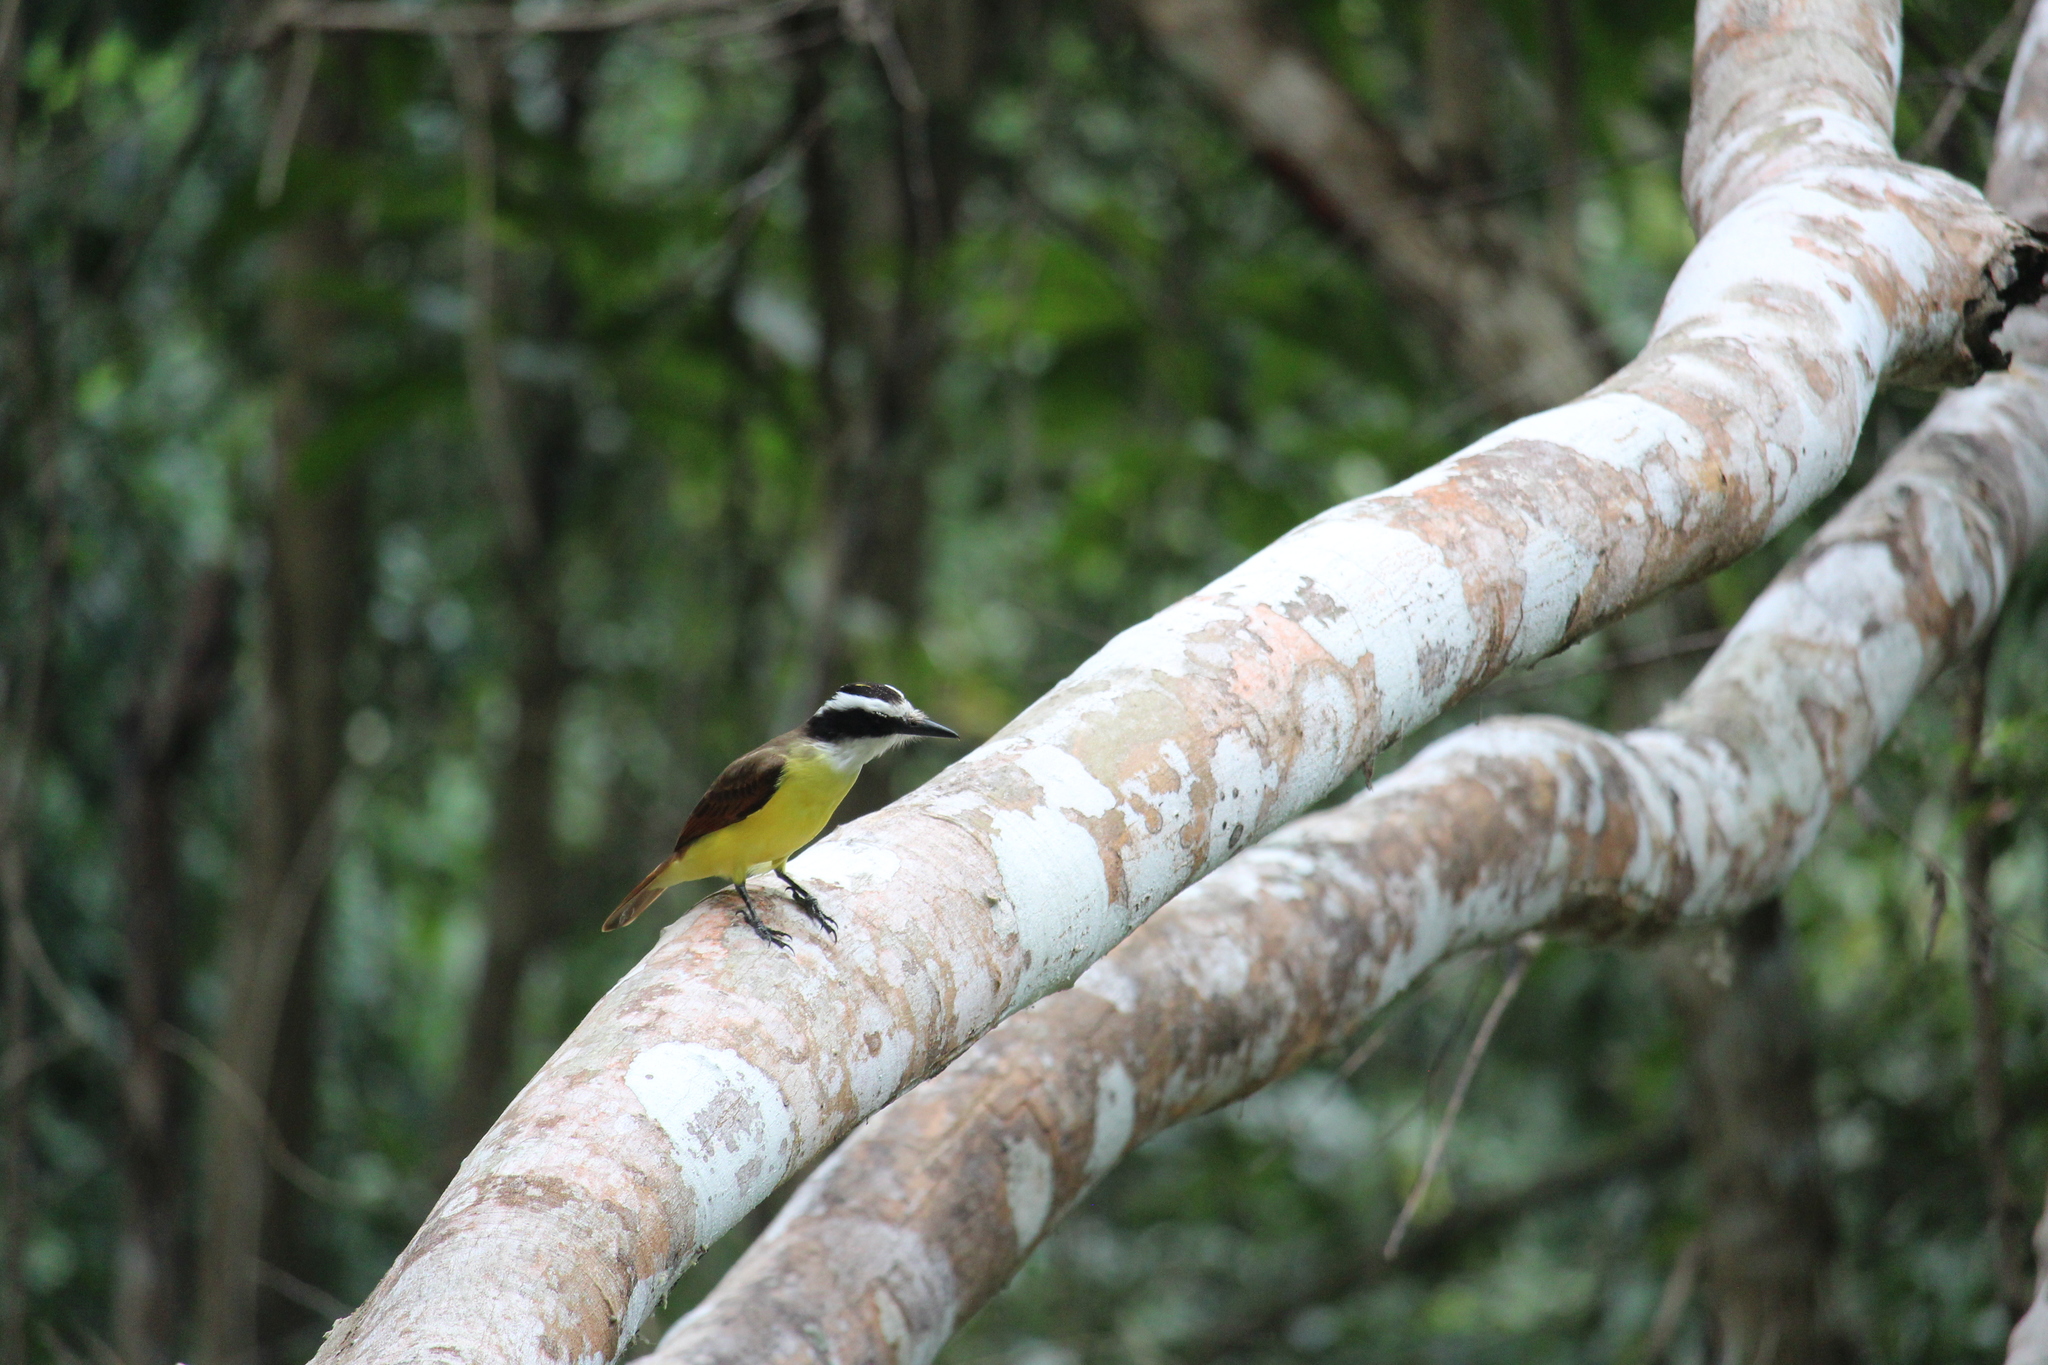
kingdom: Animalia
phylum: Chordata
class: Aves
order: Passeriformes
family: Tyrannidae
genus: Pitangus
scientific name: Pitangus sulphuratus
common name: Great kiskadee
